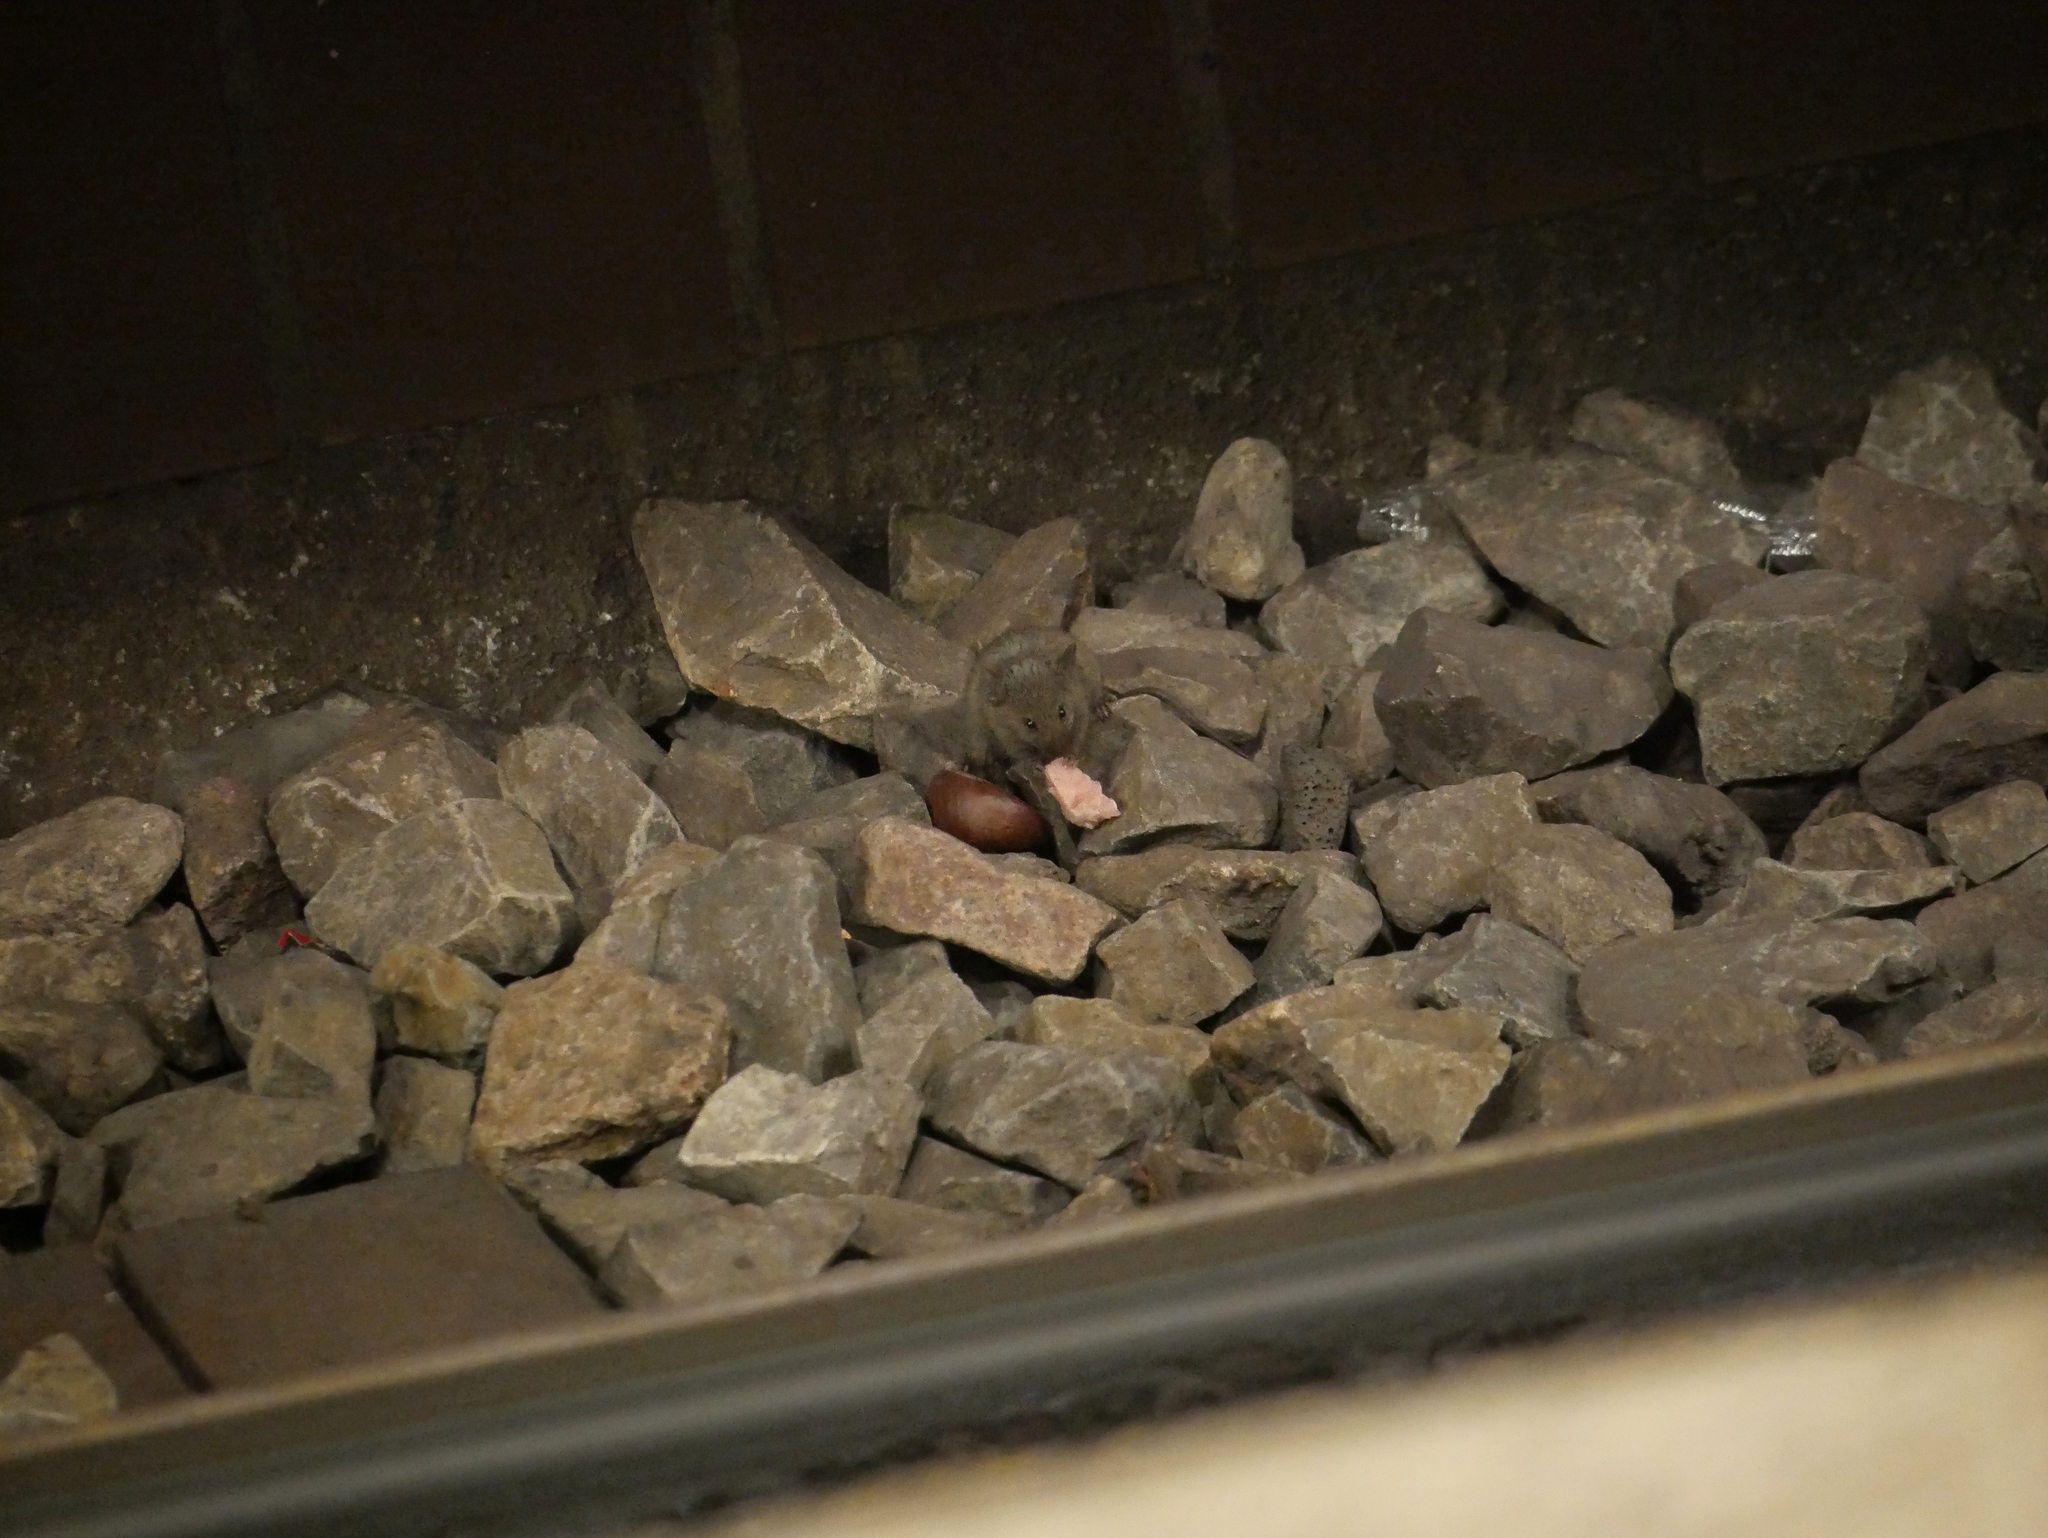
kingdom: Animalia
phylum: Chordata
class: Mammalia
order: Rodentia
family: Muridae
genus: Mus
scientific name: Mus musculus
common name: House mouse
